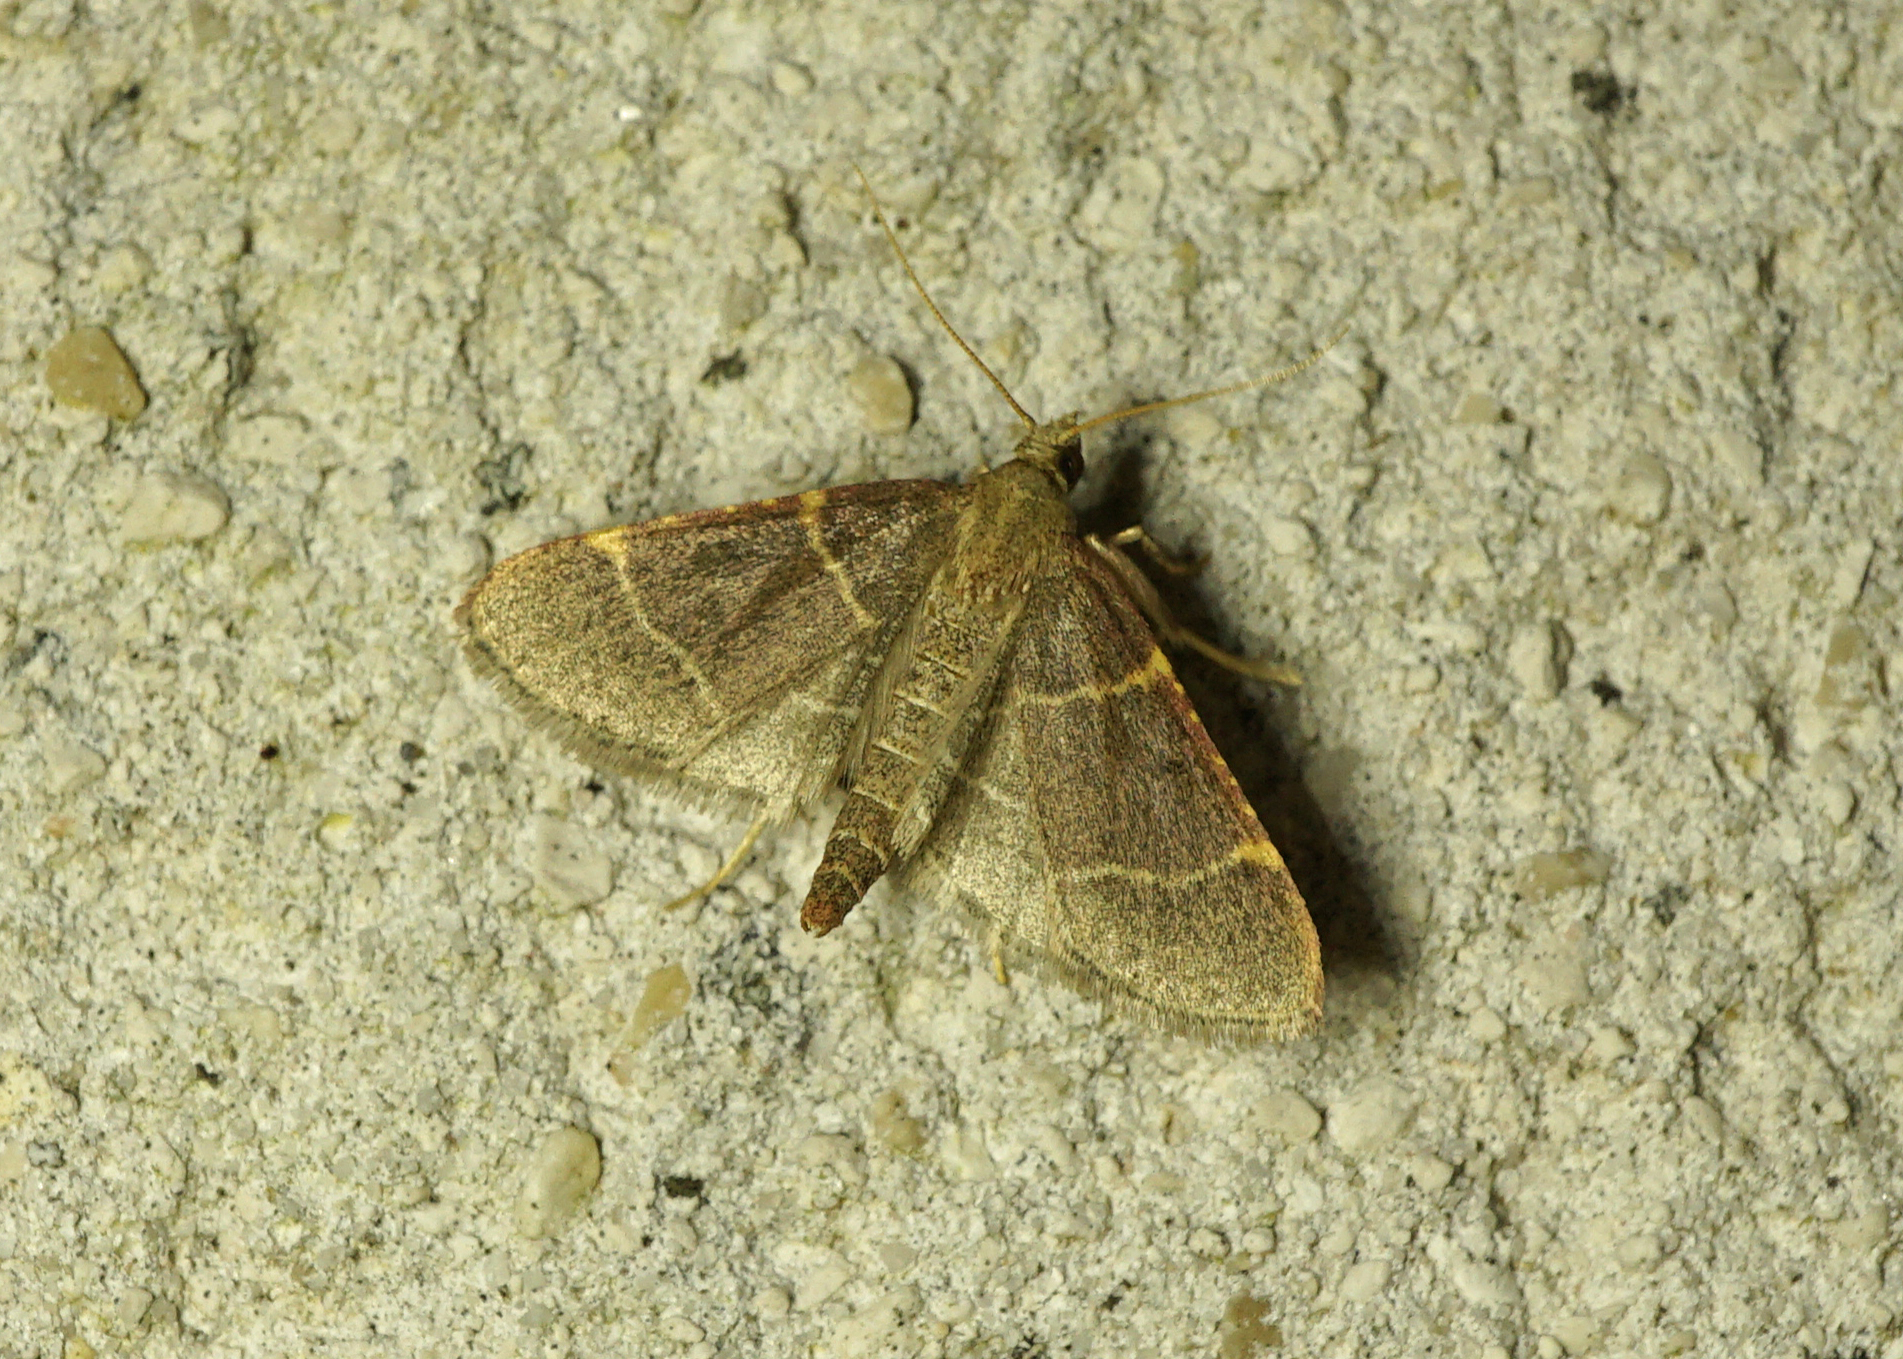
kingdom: Animalia
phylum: Arthropoda
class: Insecta
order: Lepidoptera
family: Pyralidae
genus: Hypsopygia
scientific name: Hypsopygia glaucinalis
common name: Double-striped tabby
